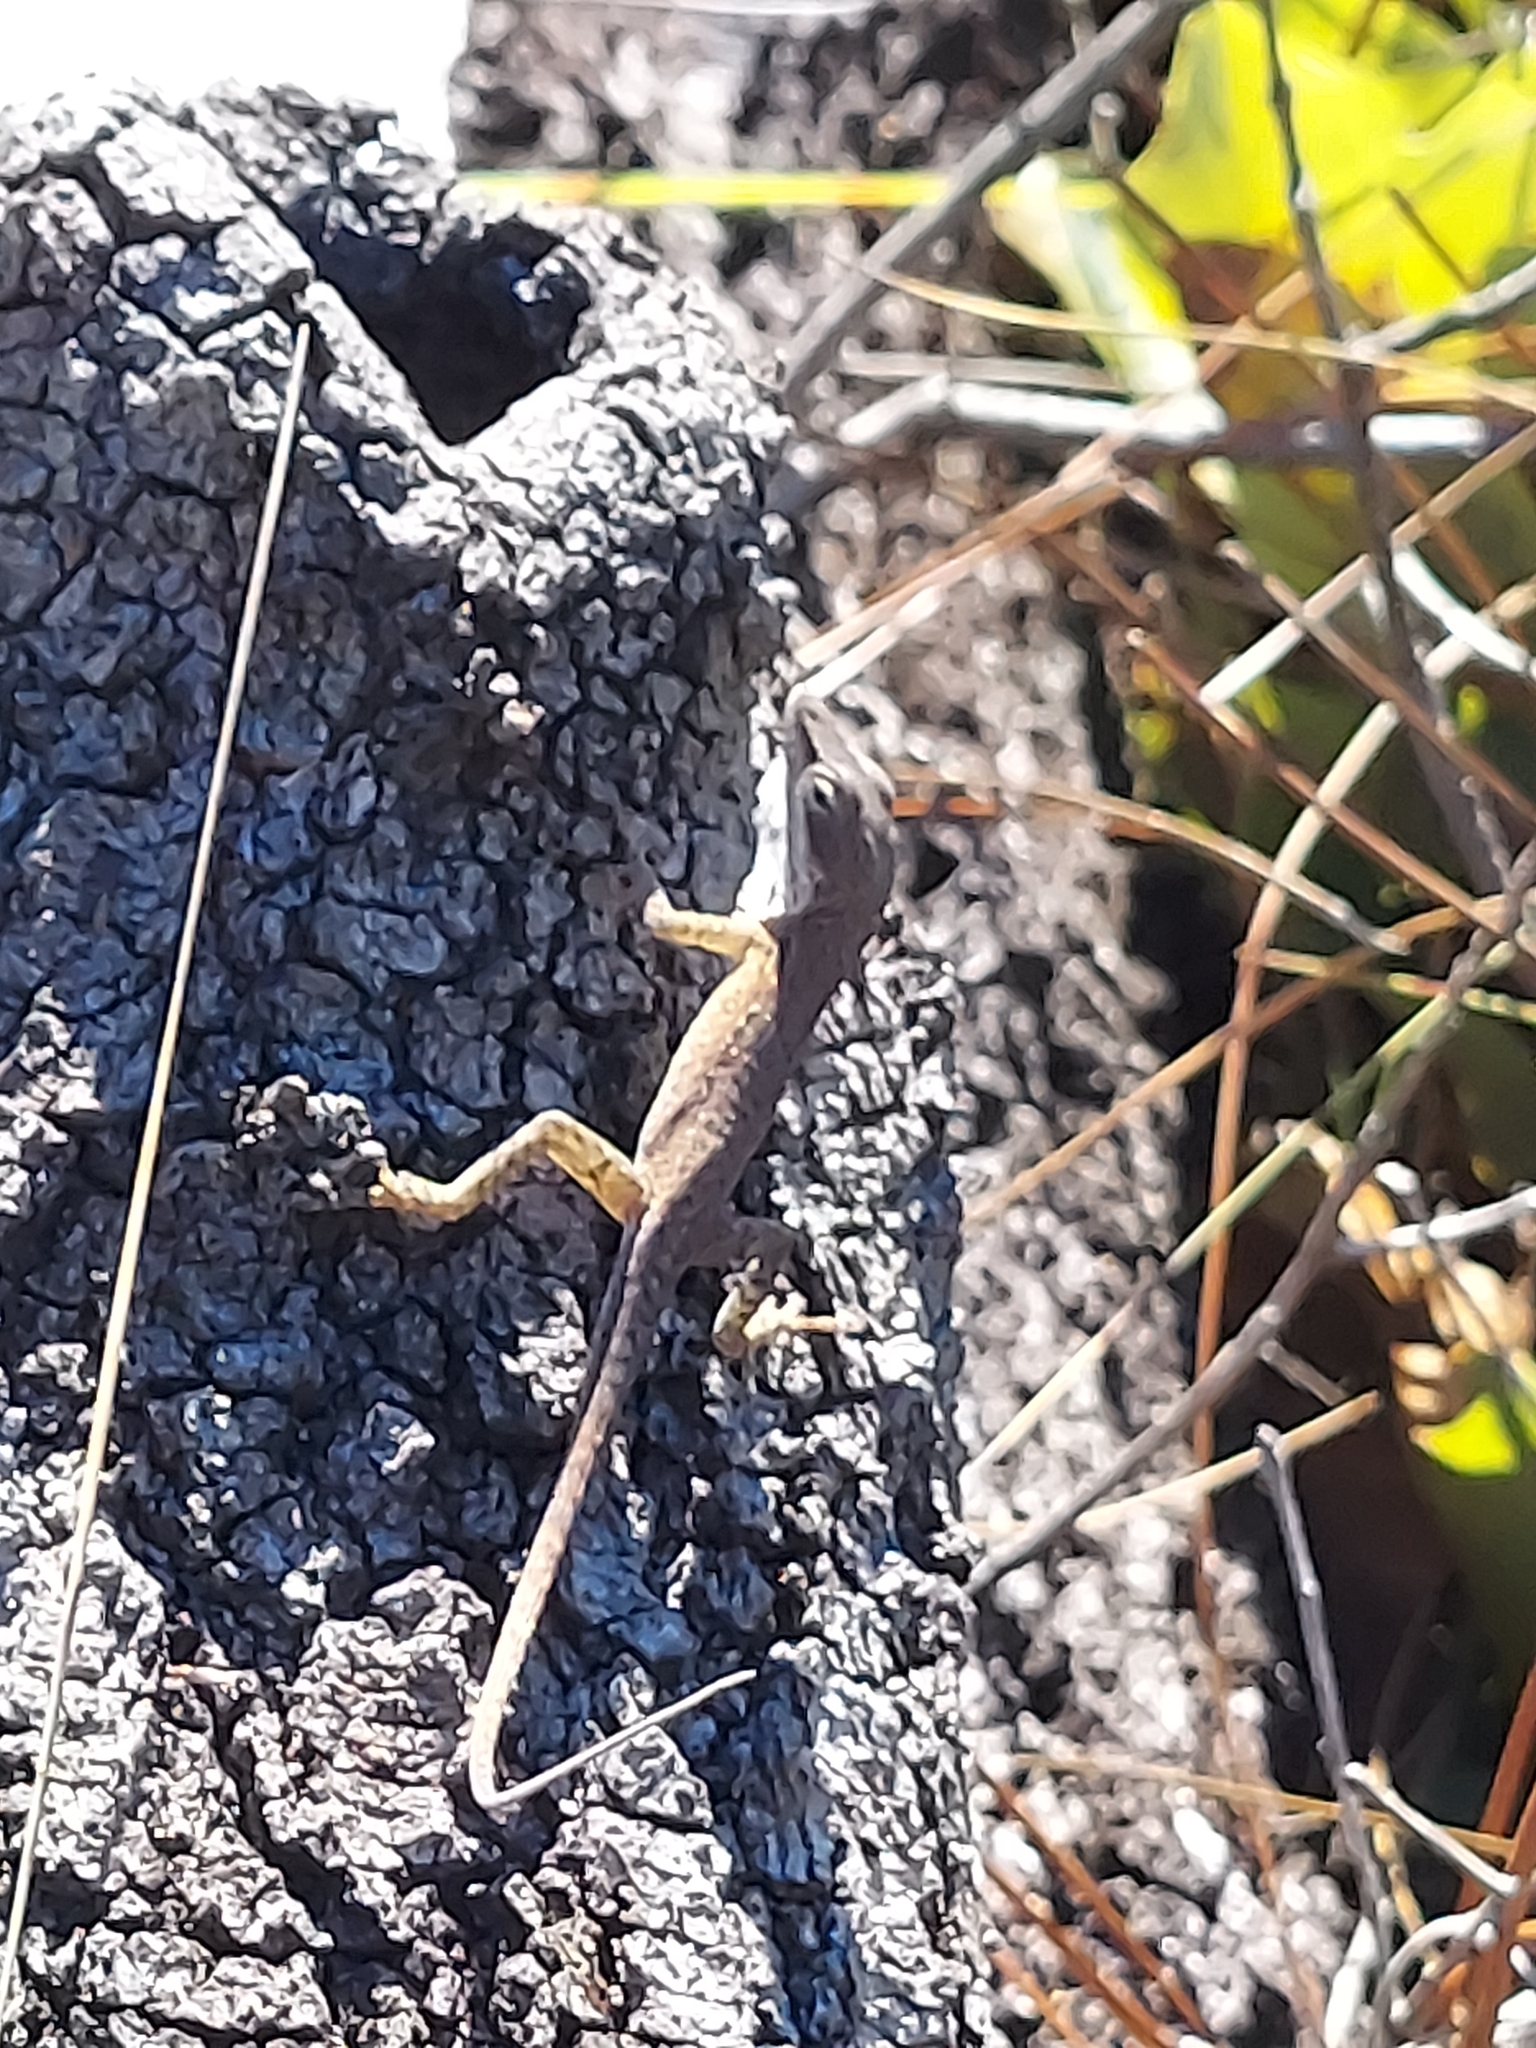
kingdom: Animalia
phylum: Chordata
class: Squamata
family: Dactyloidae
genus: Anolis
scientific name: Anolis carolinensis
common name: Green anole
